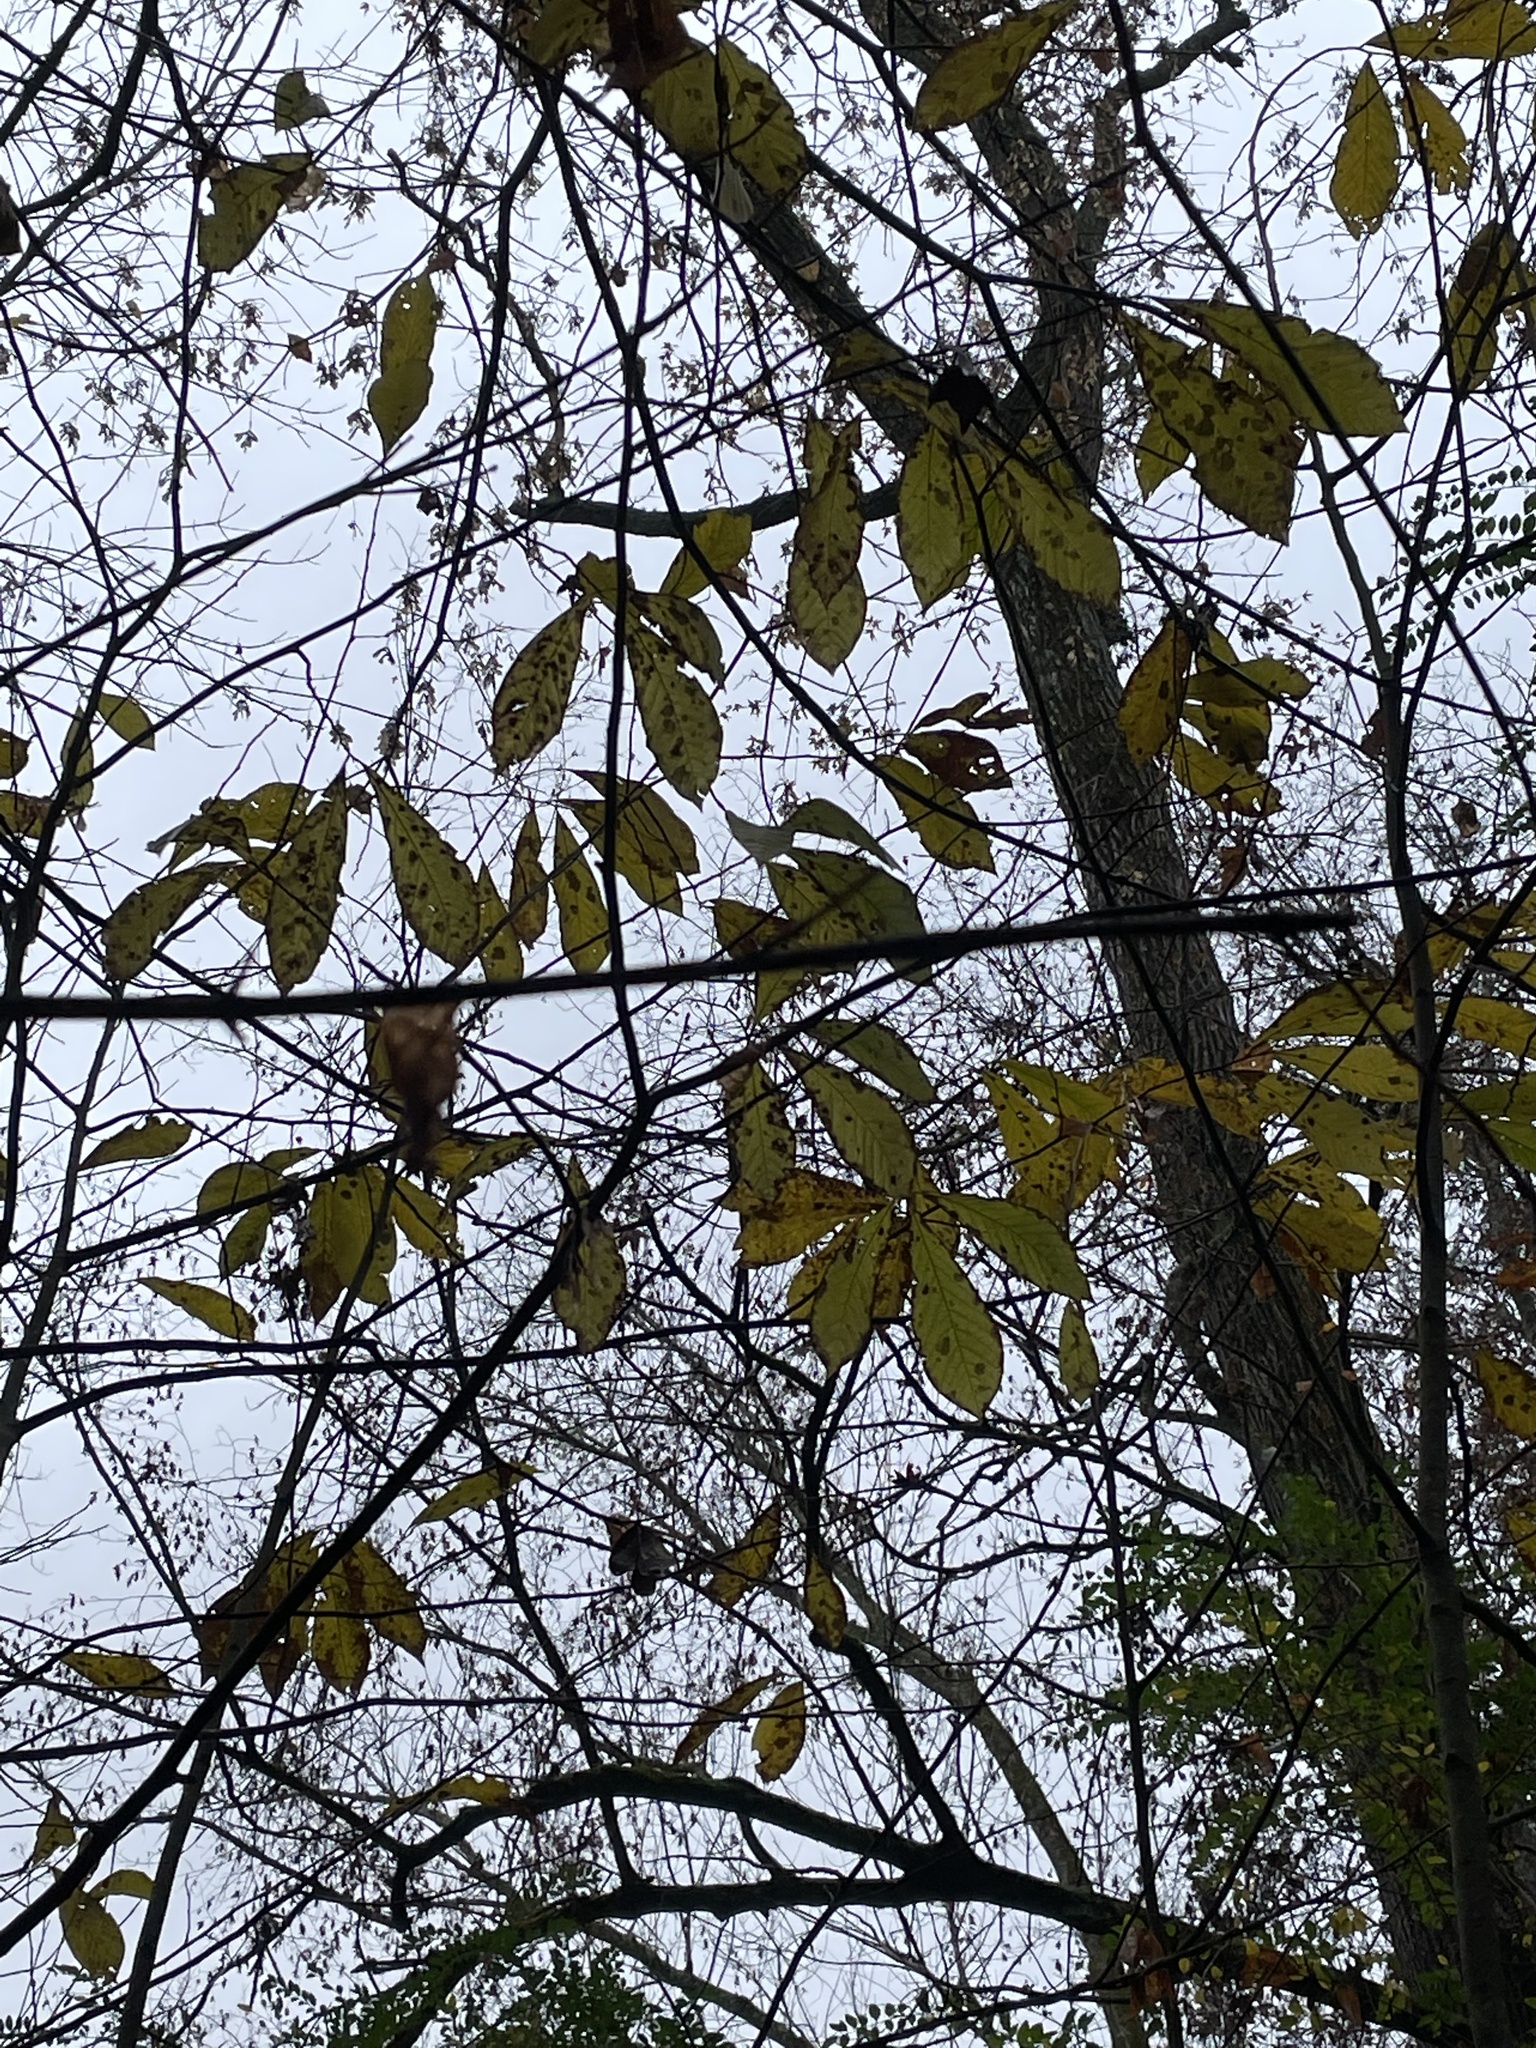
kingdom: Plantae
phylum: Tracheophyta
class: Magnoliopsida
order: Magnoliales
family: Annonaceae
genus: Asimina
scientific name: Asimina triloba
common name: Dog-banana
